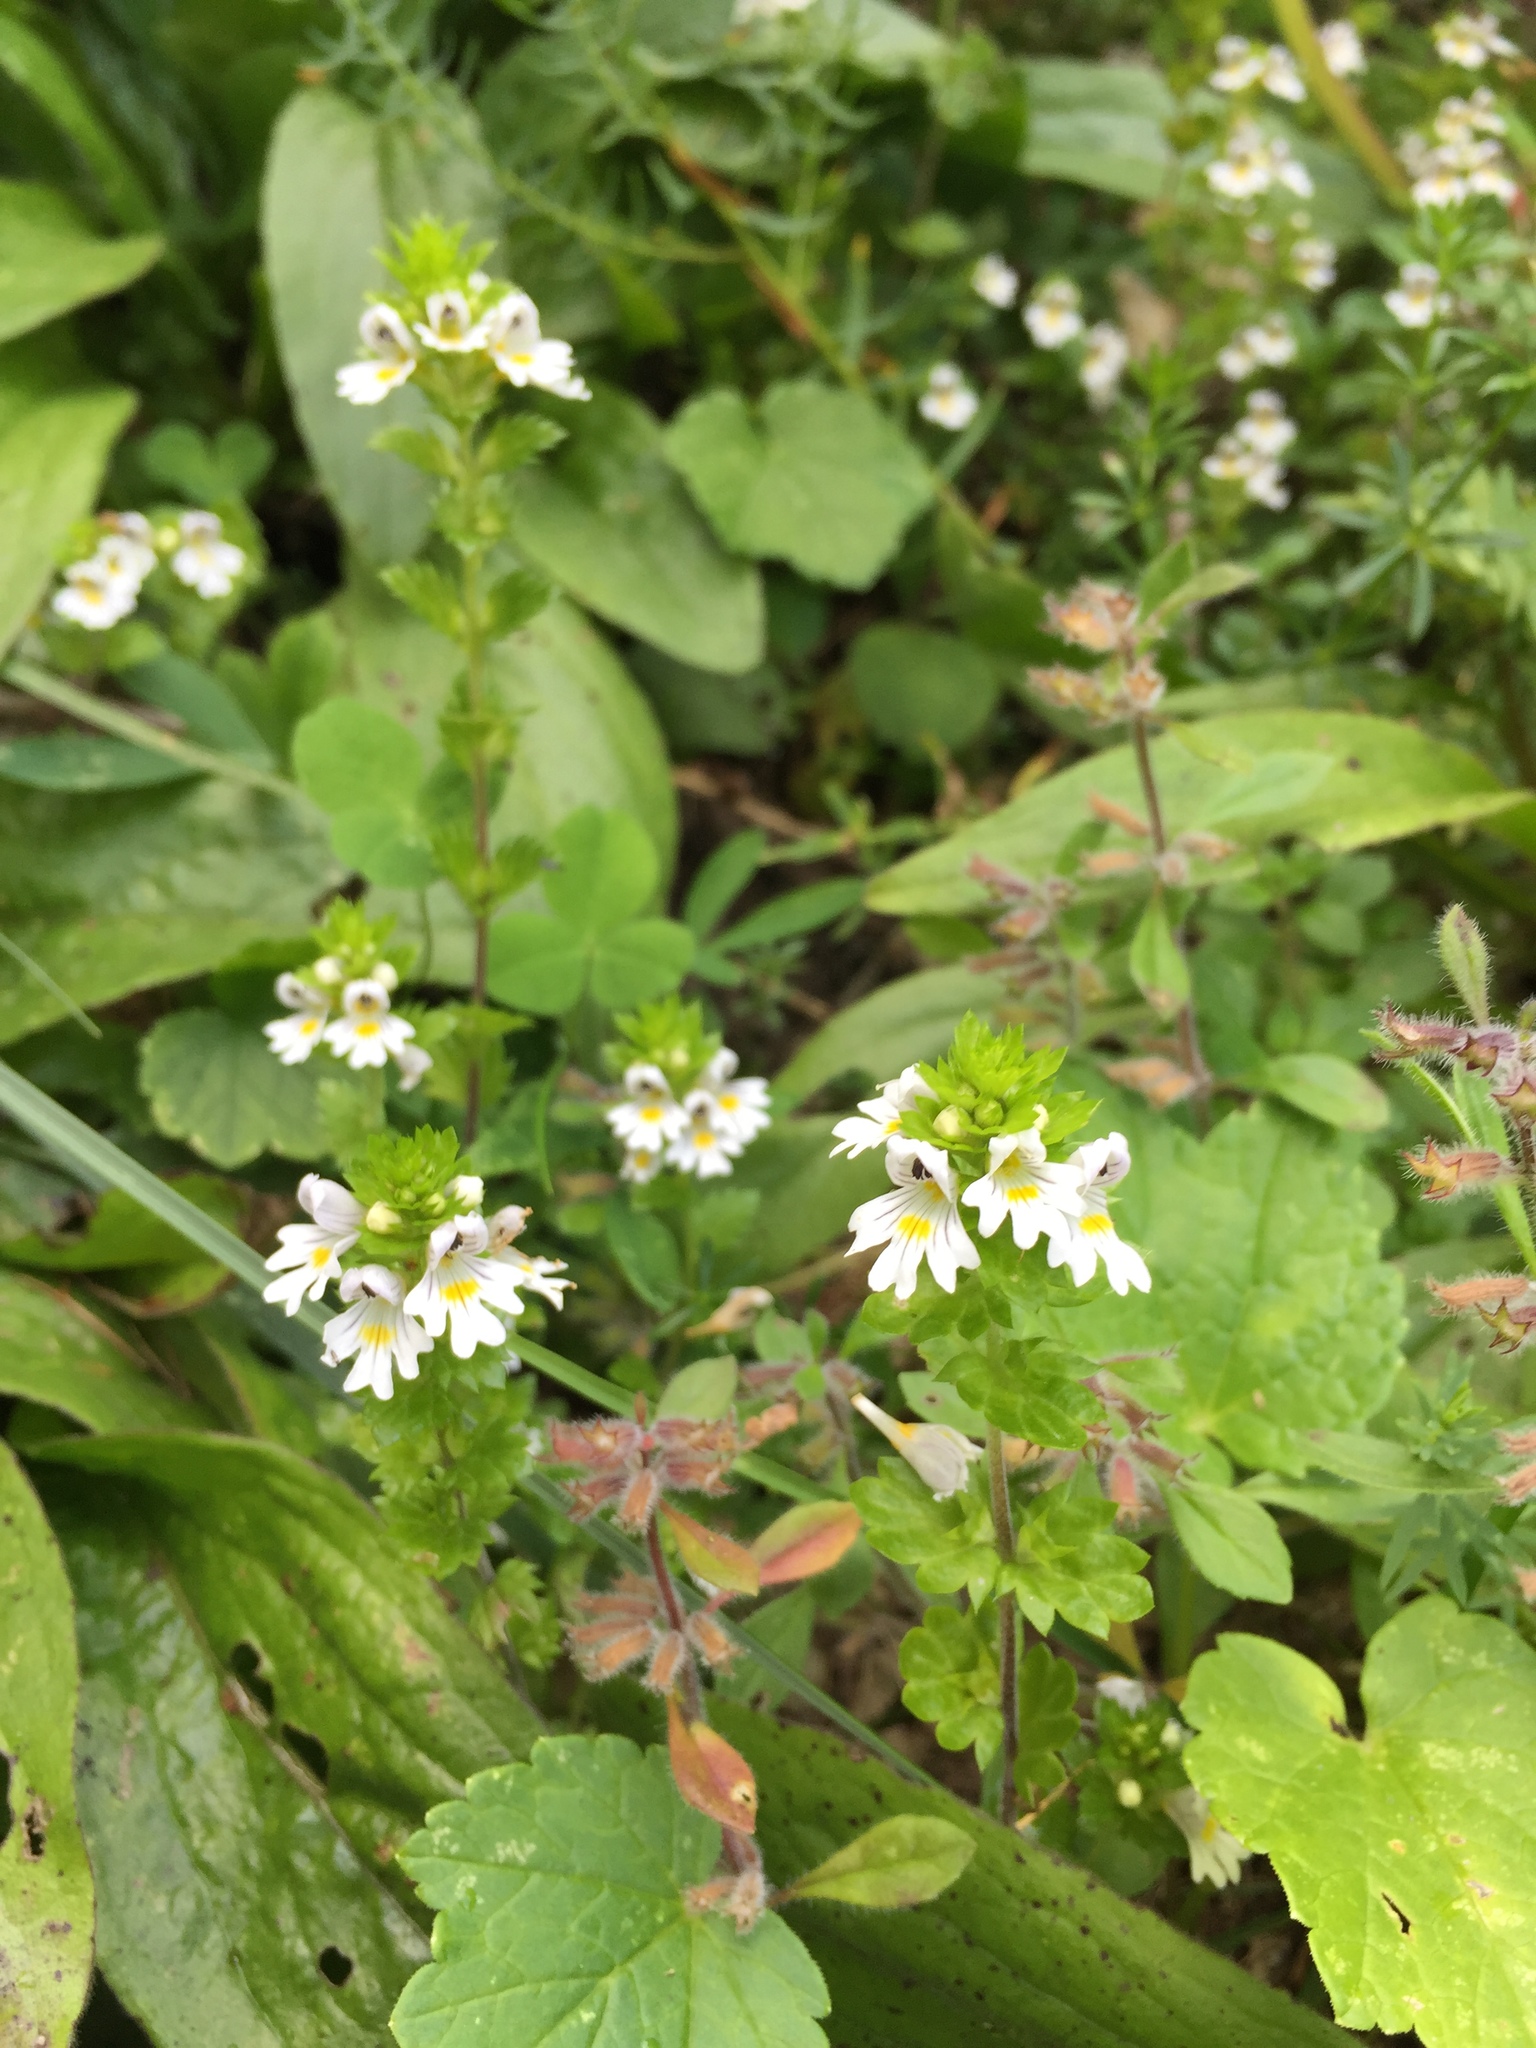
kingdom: Plantae
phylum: Tracheophyta
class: Magnoliopsida
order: Lamiales
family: Orobanchaceae
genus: Euphrasia
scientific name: Euphrasia officinalis
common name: Eyebright
